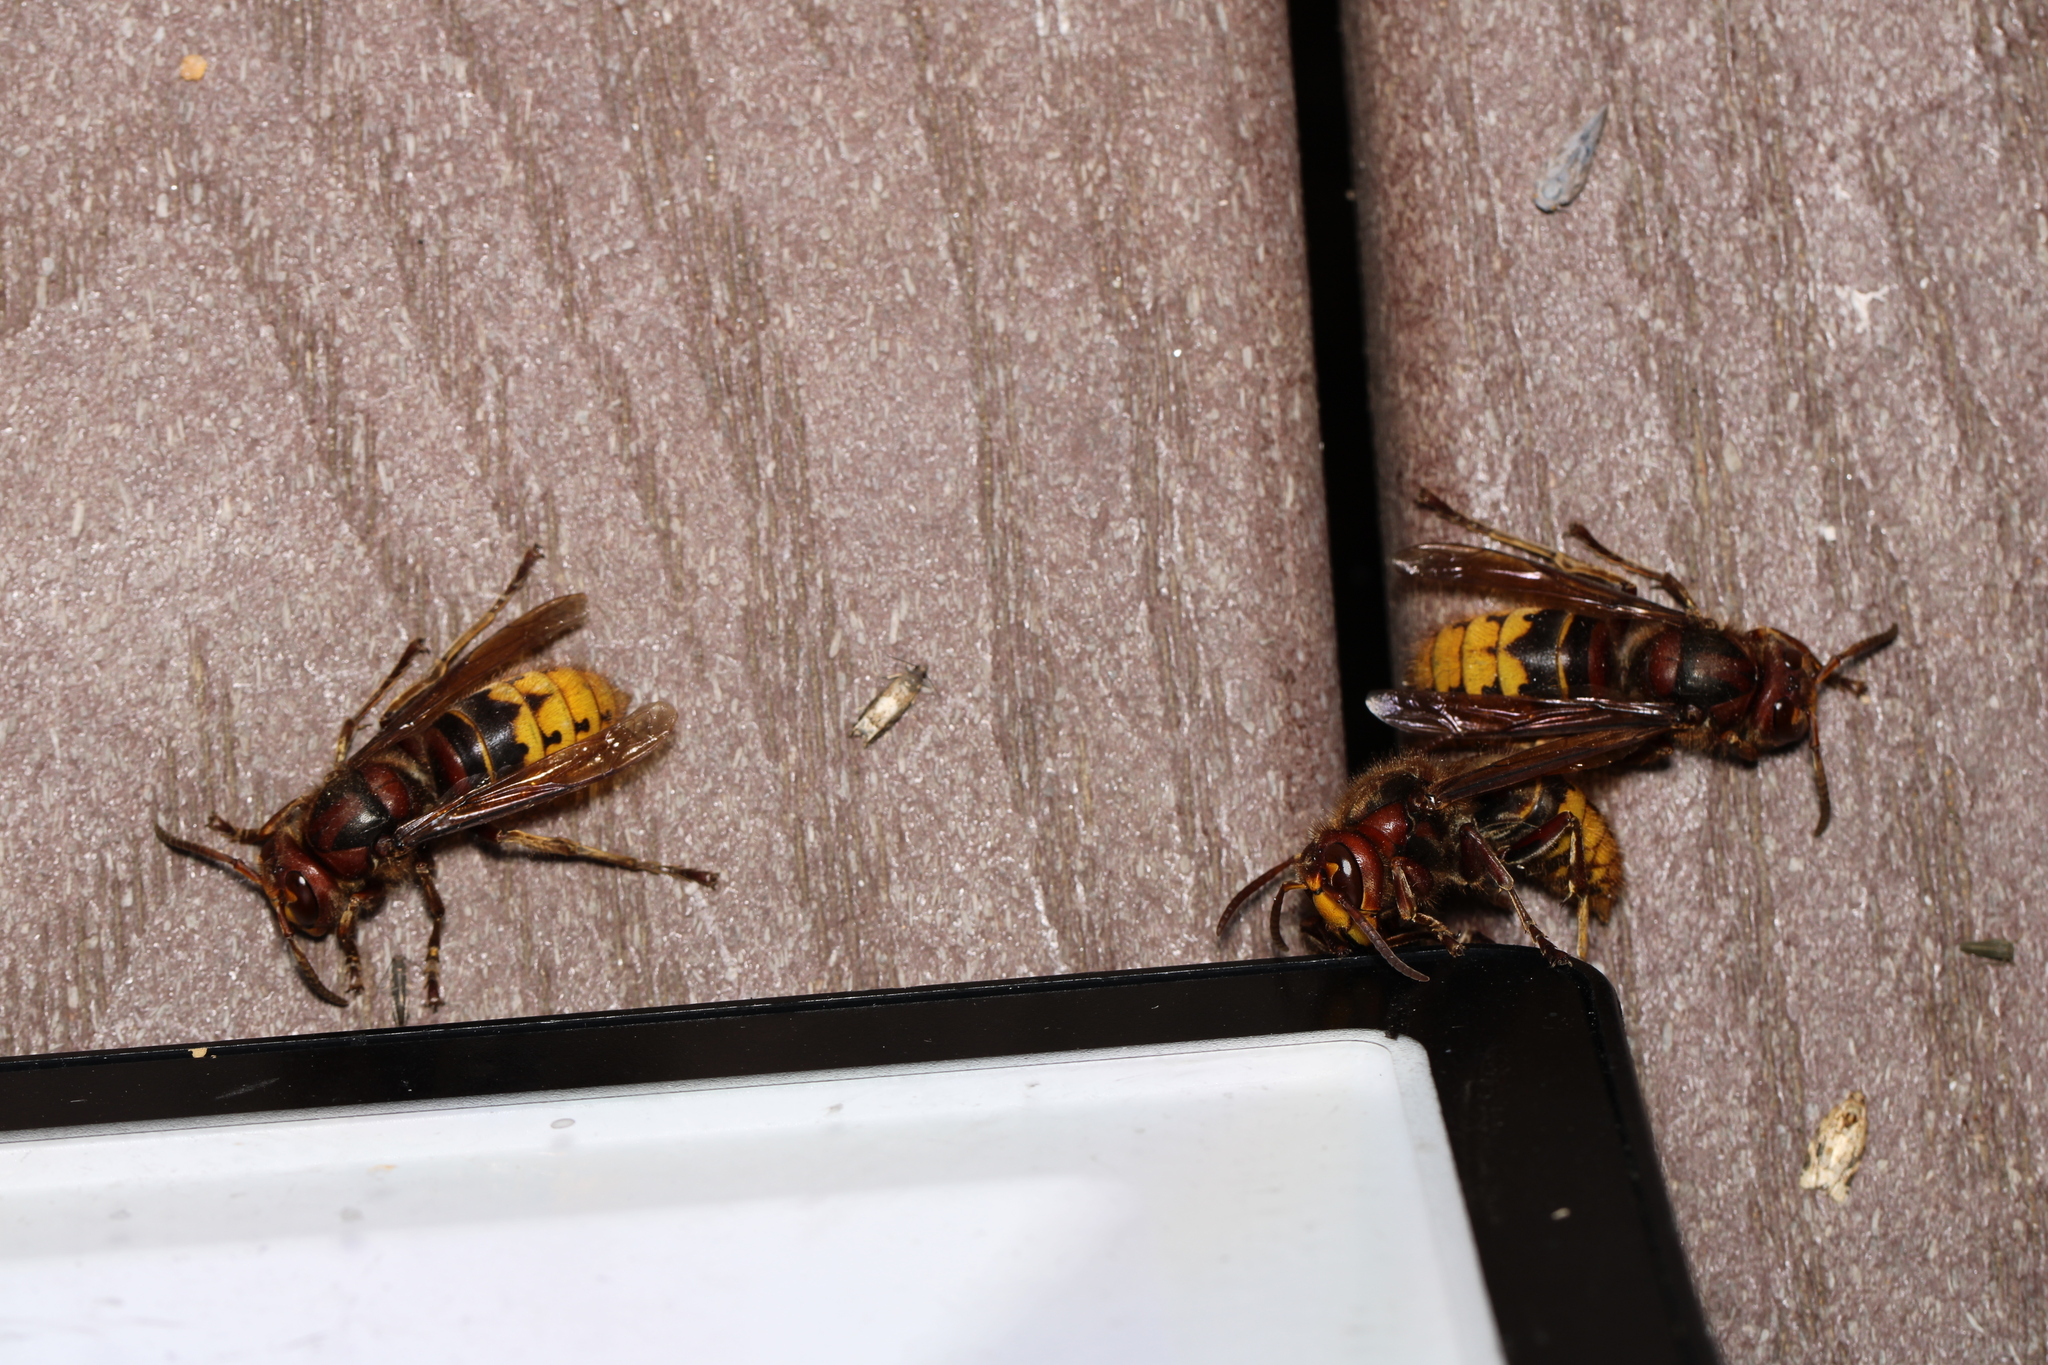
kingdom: Animalia
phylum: Arthropoda
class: Insecta
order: Hymenoptera
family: Vespidae
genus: Vespa
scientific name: Vespa crabro
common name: Hornet
